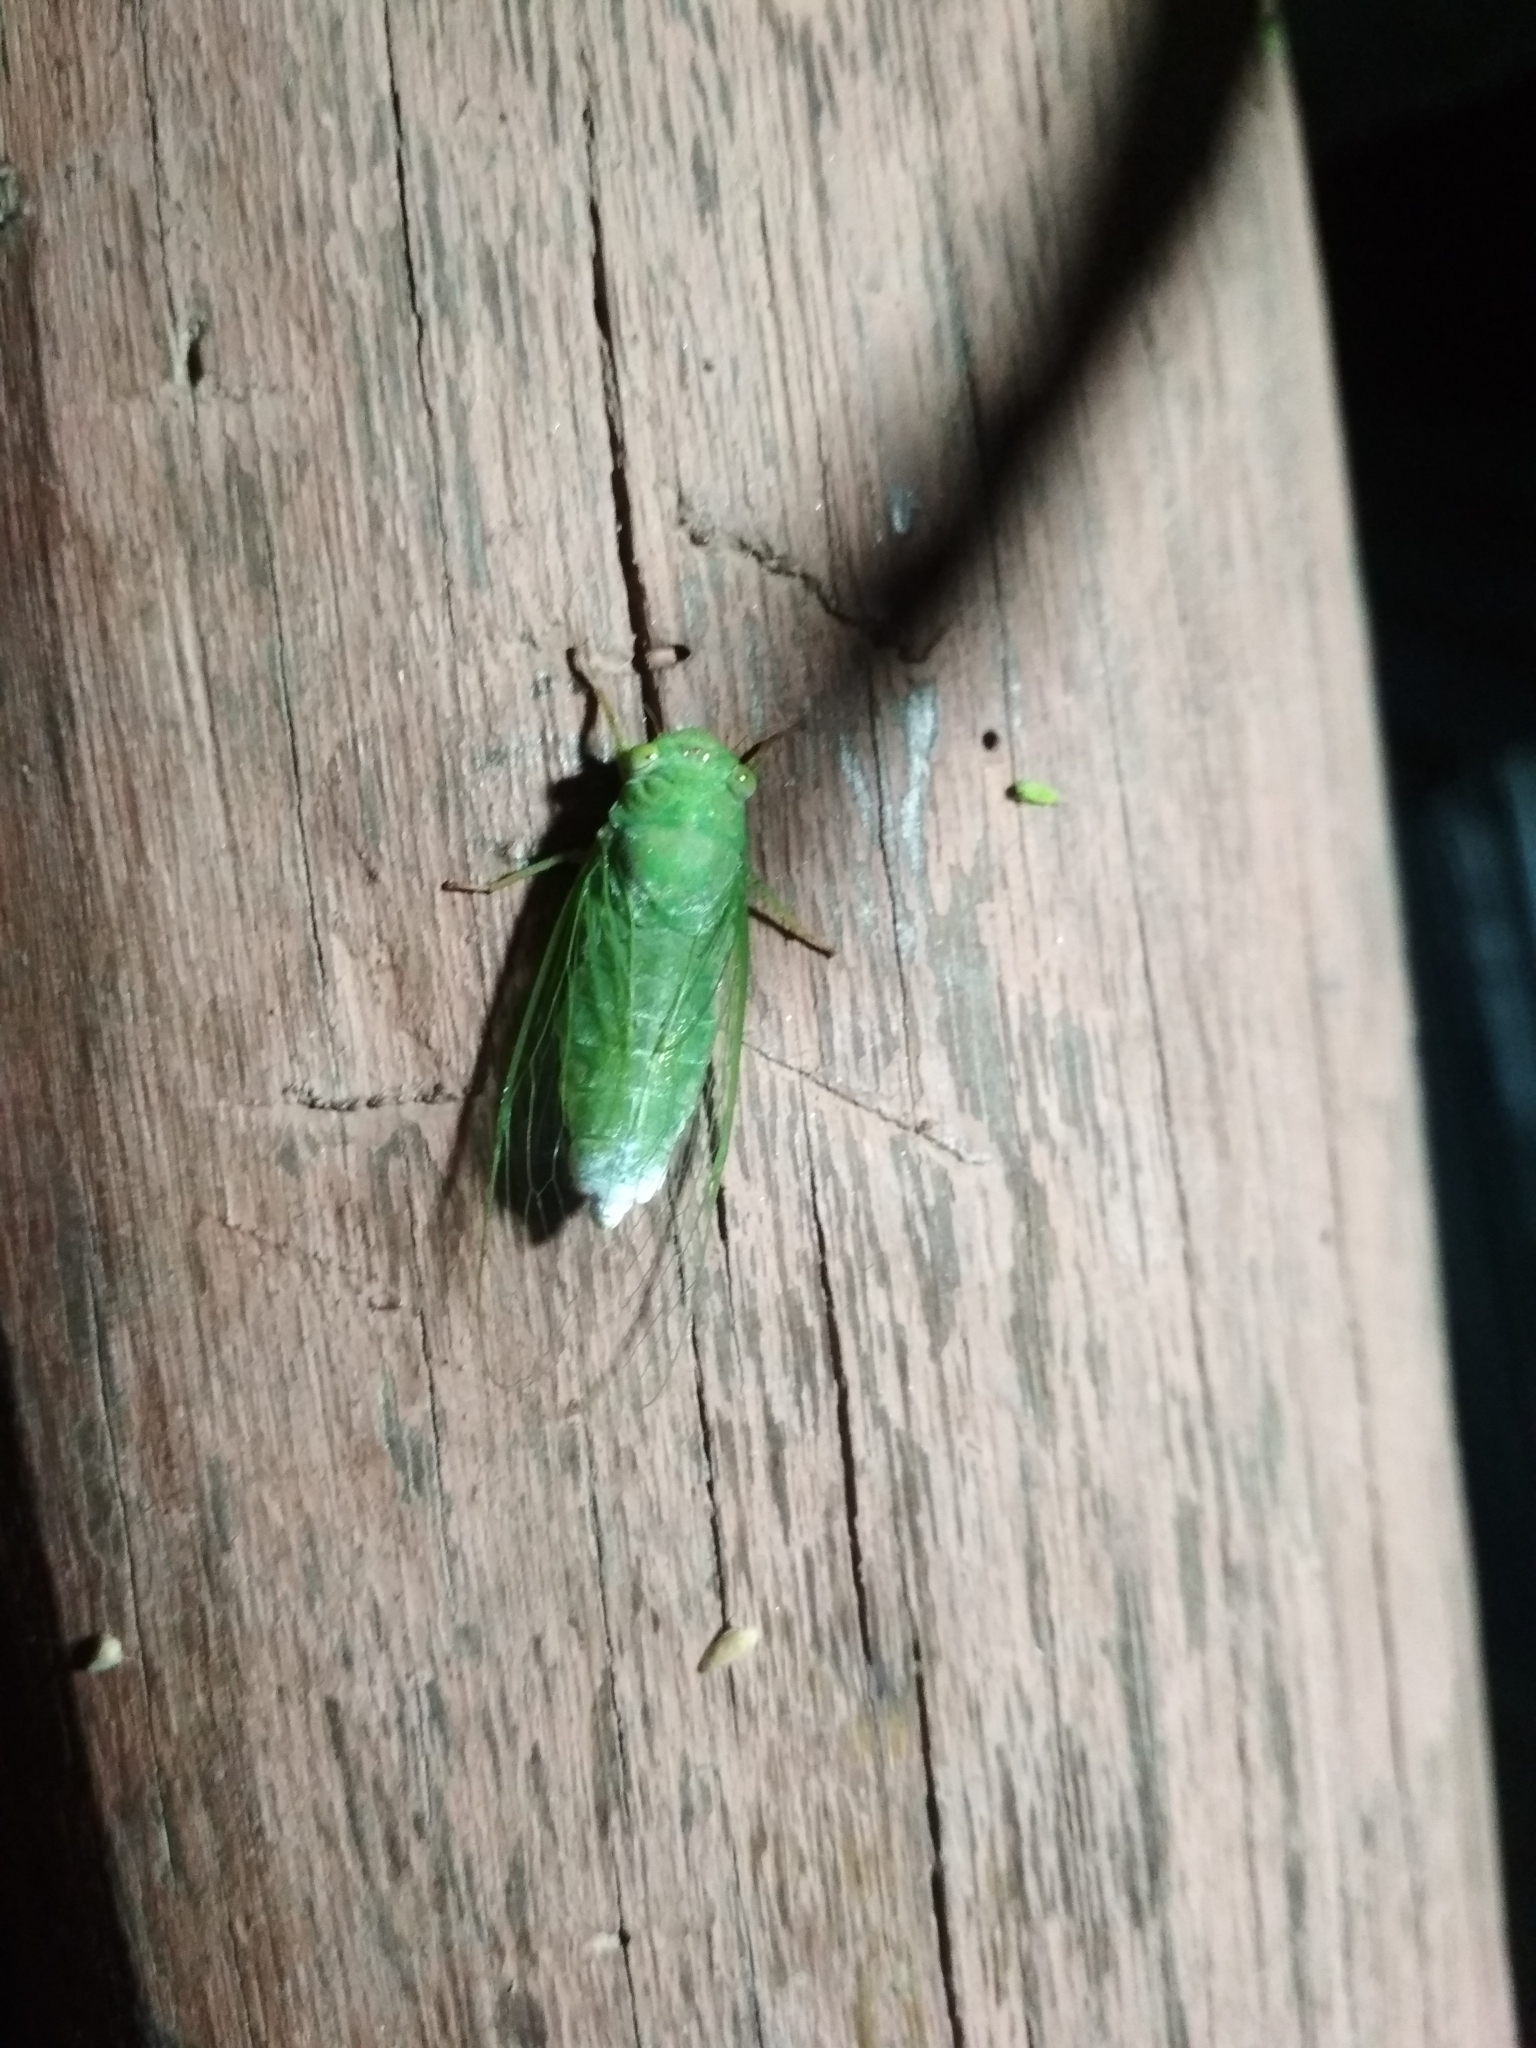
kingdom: Animalia
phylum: Arthropoda
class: Insecta
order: Hemiptera
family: Cicadidae
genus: Euterpnosia
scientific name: Euterpnosia madhava
